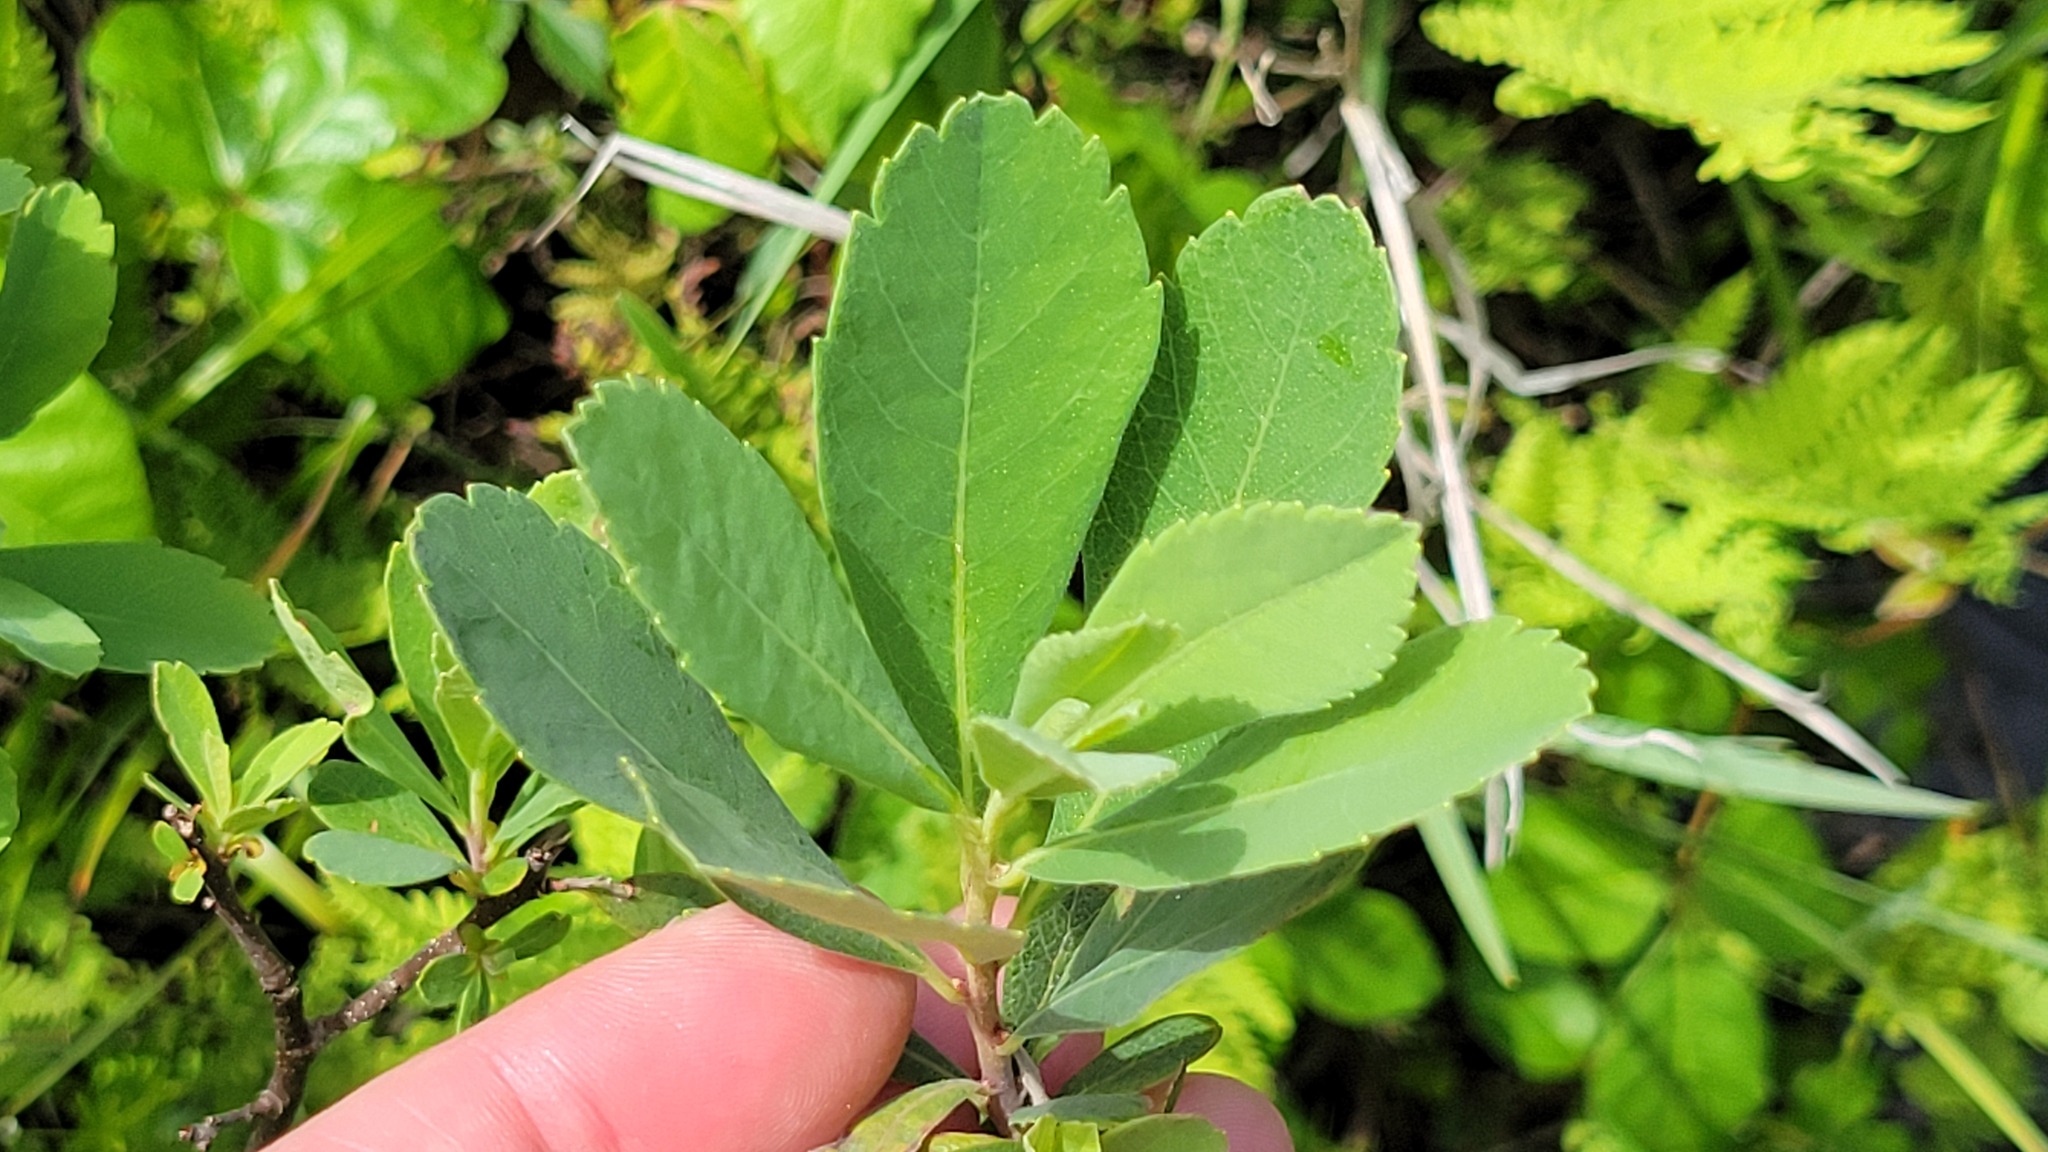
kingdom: Plantae
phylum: Tracheophyta
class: Magnoliopsida
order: Fagales
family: Myricaceae
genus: Myrica
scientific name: Myrica gale
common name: Sweet gale
